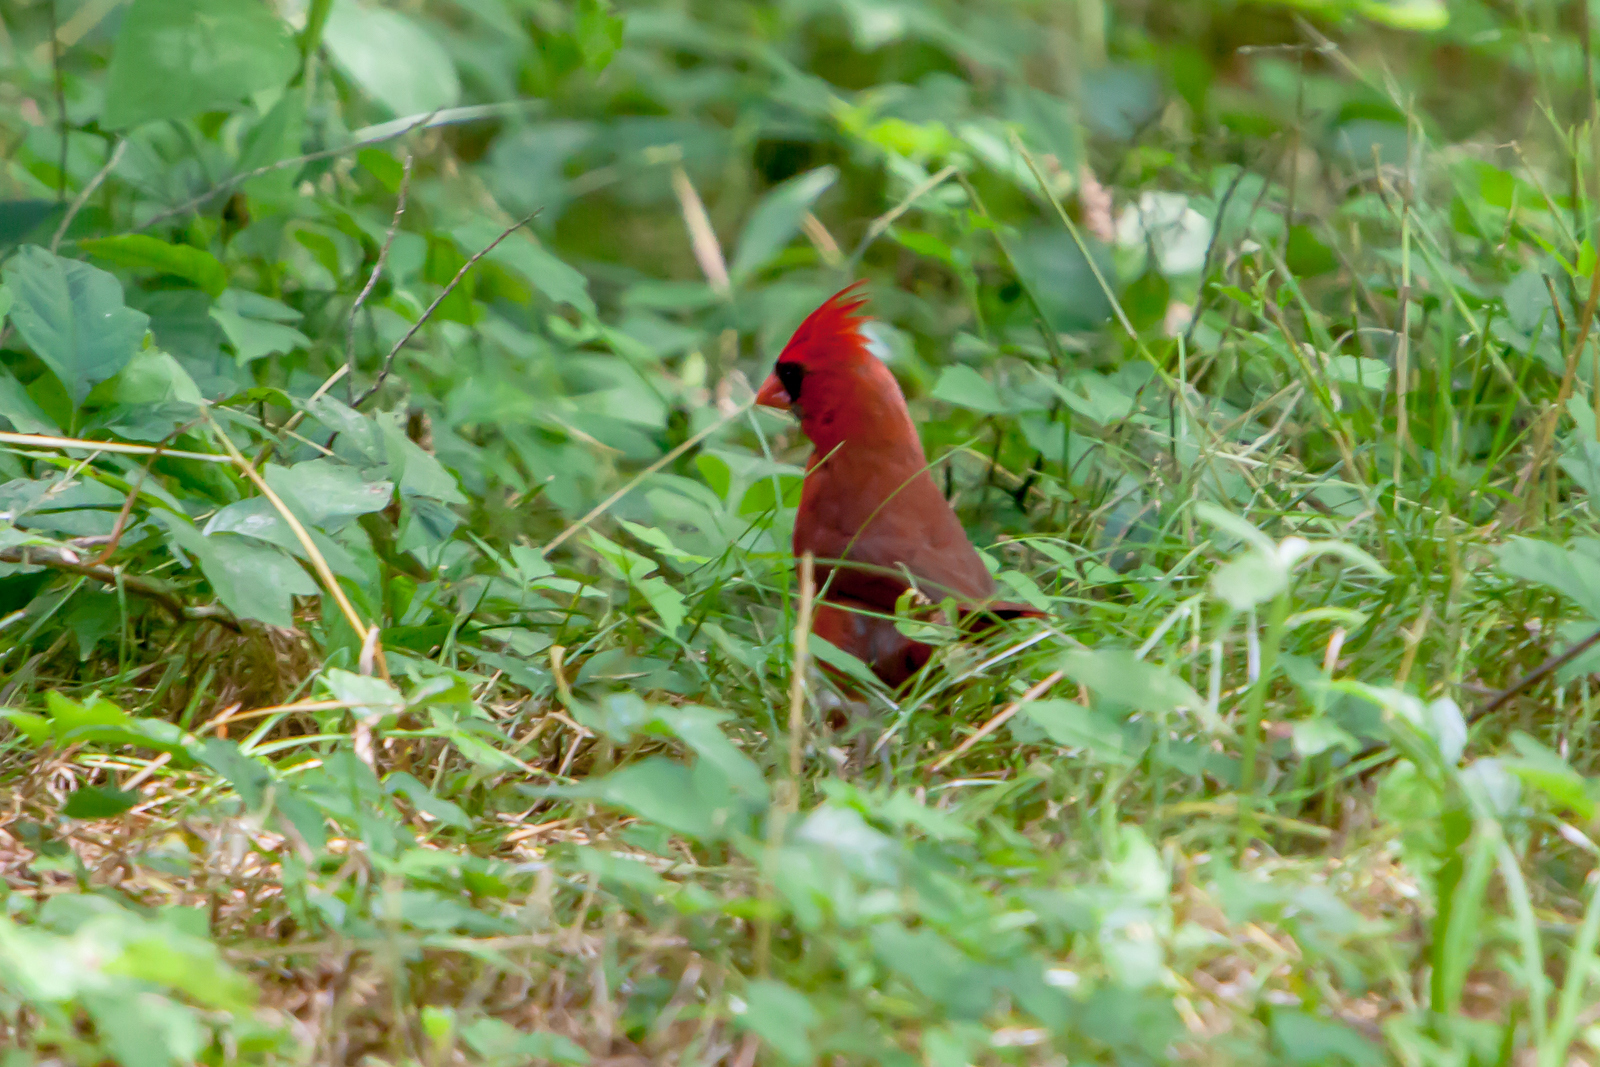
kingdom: Animalia
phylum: Chordata
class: Aves
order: Passeriformes
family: Cardinalidae
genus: Cardinalis
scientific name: Cardinalis cardinalis
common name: Northern cardinal
